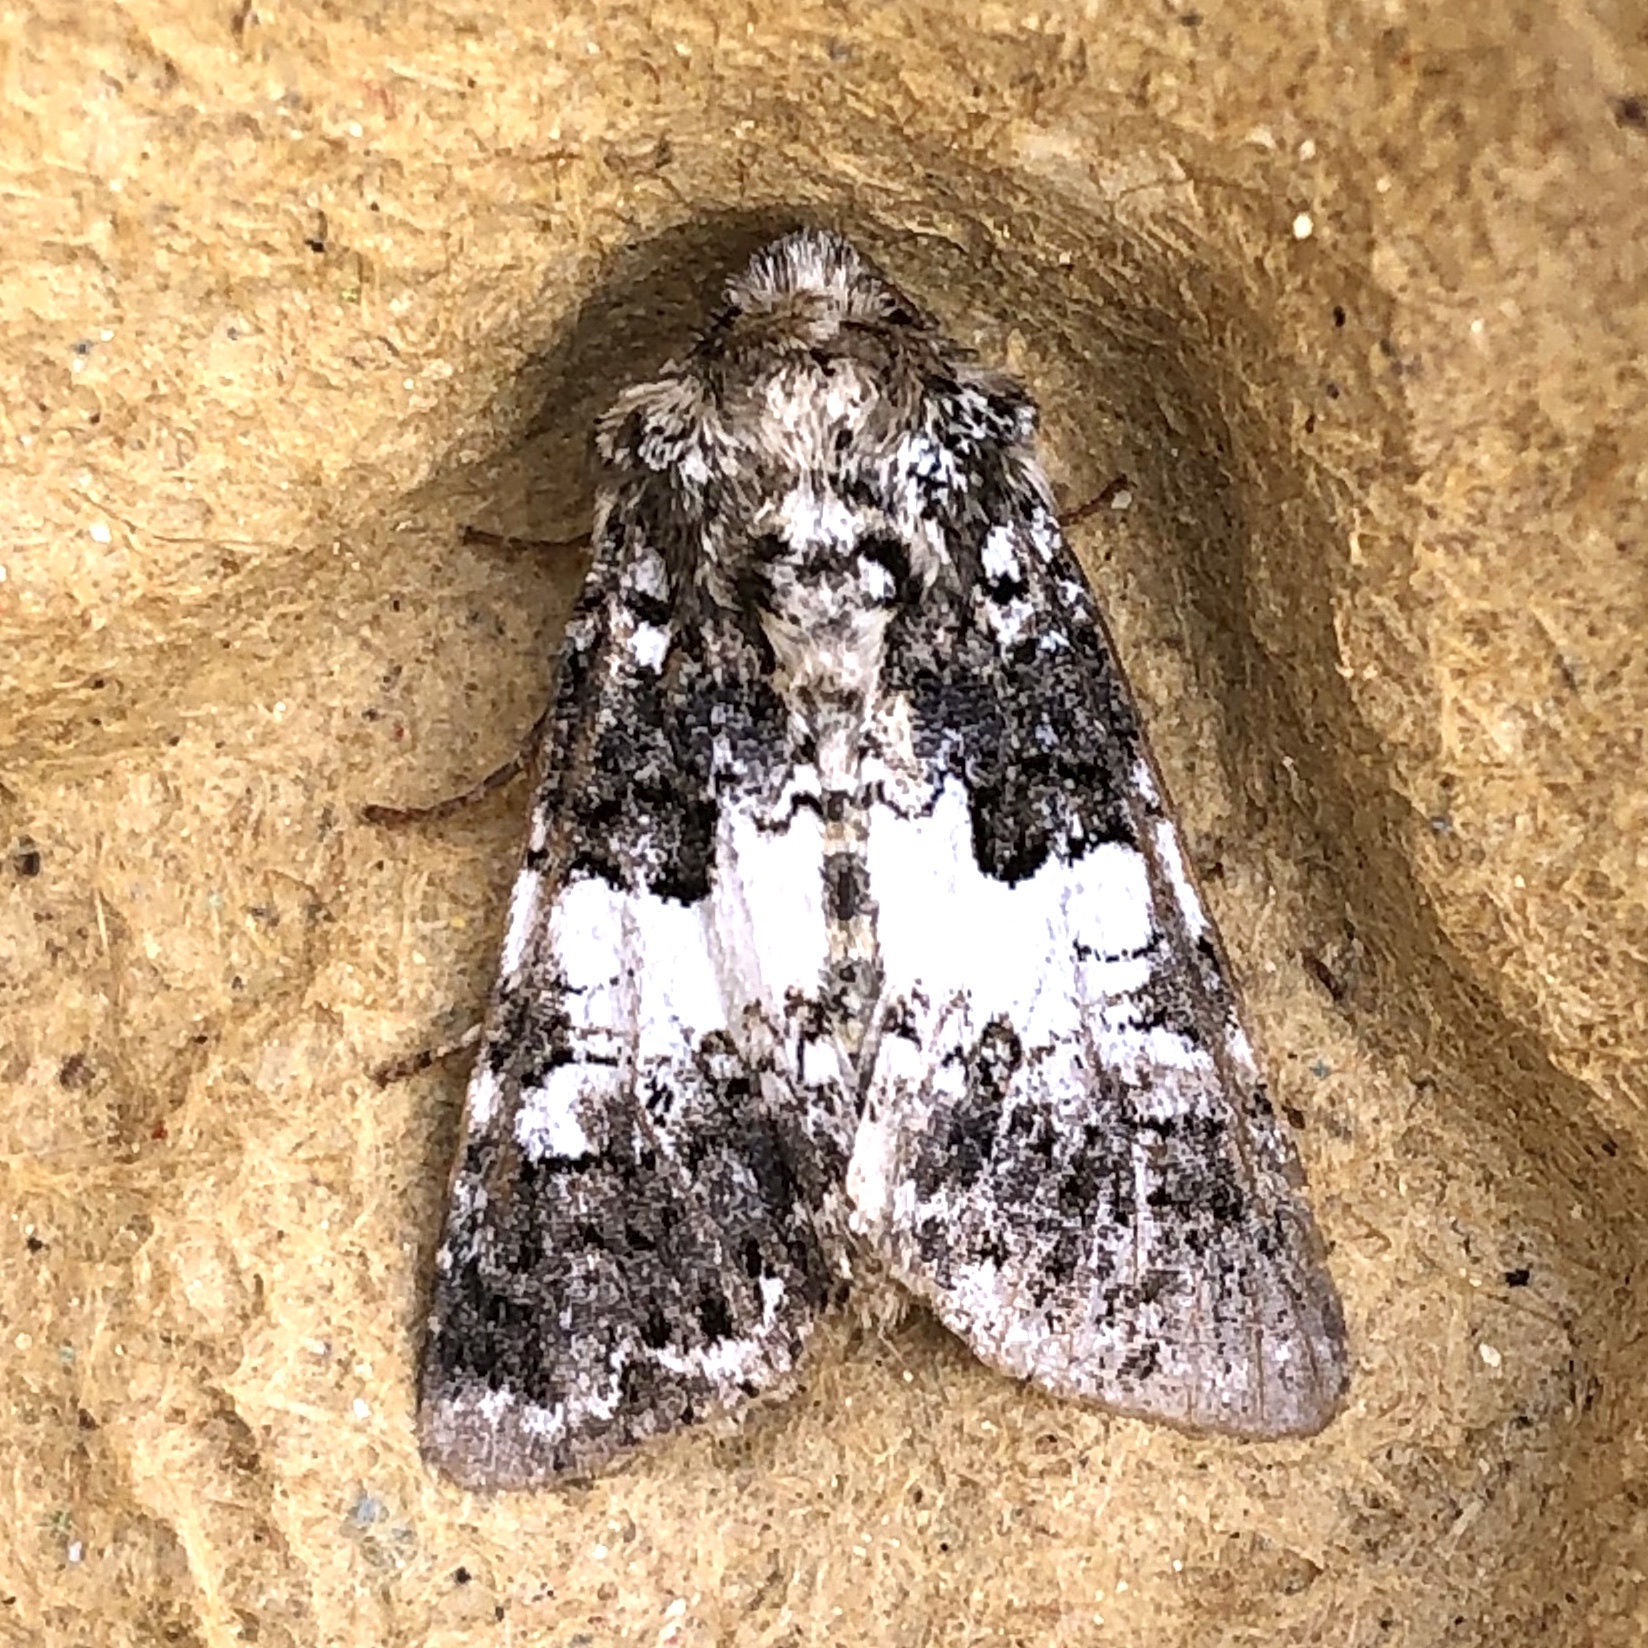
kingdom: Animalia
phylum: Arthropoda
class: Insecta
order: Lepidoptera
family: Noctuidae
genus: Hadena
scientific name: Hadena compta
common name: Varied coronet
